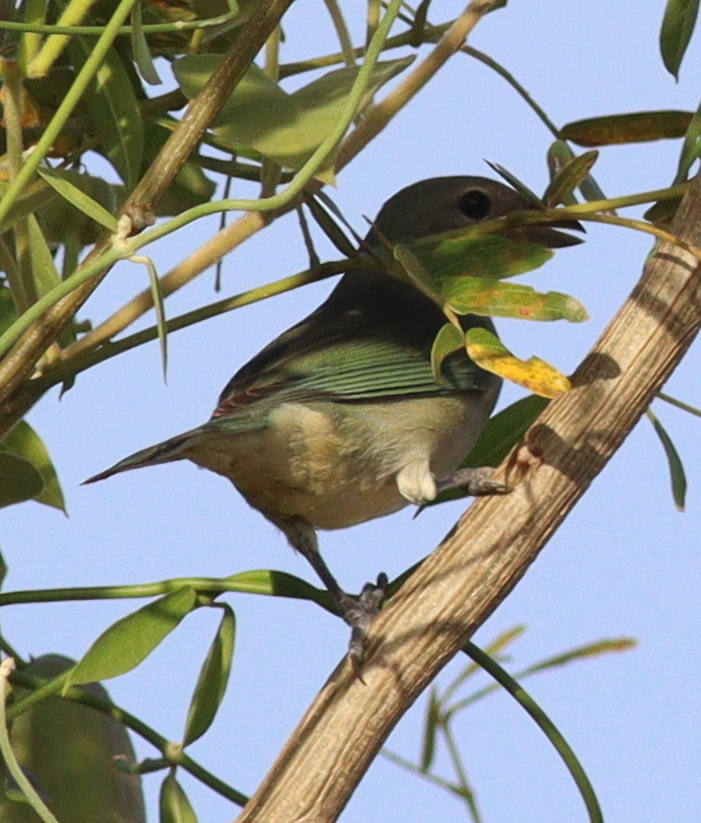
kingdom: Animalia
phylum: Chordata
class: Aves
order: Passeriformes
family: Thraupidae
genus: Thraupis
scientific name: Thraupis sayaca
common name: Sayaca tanager
